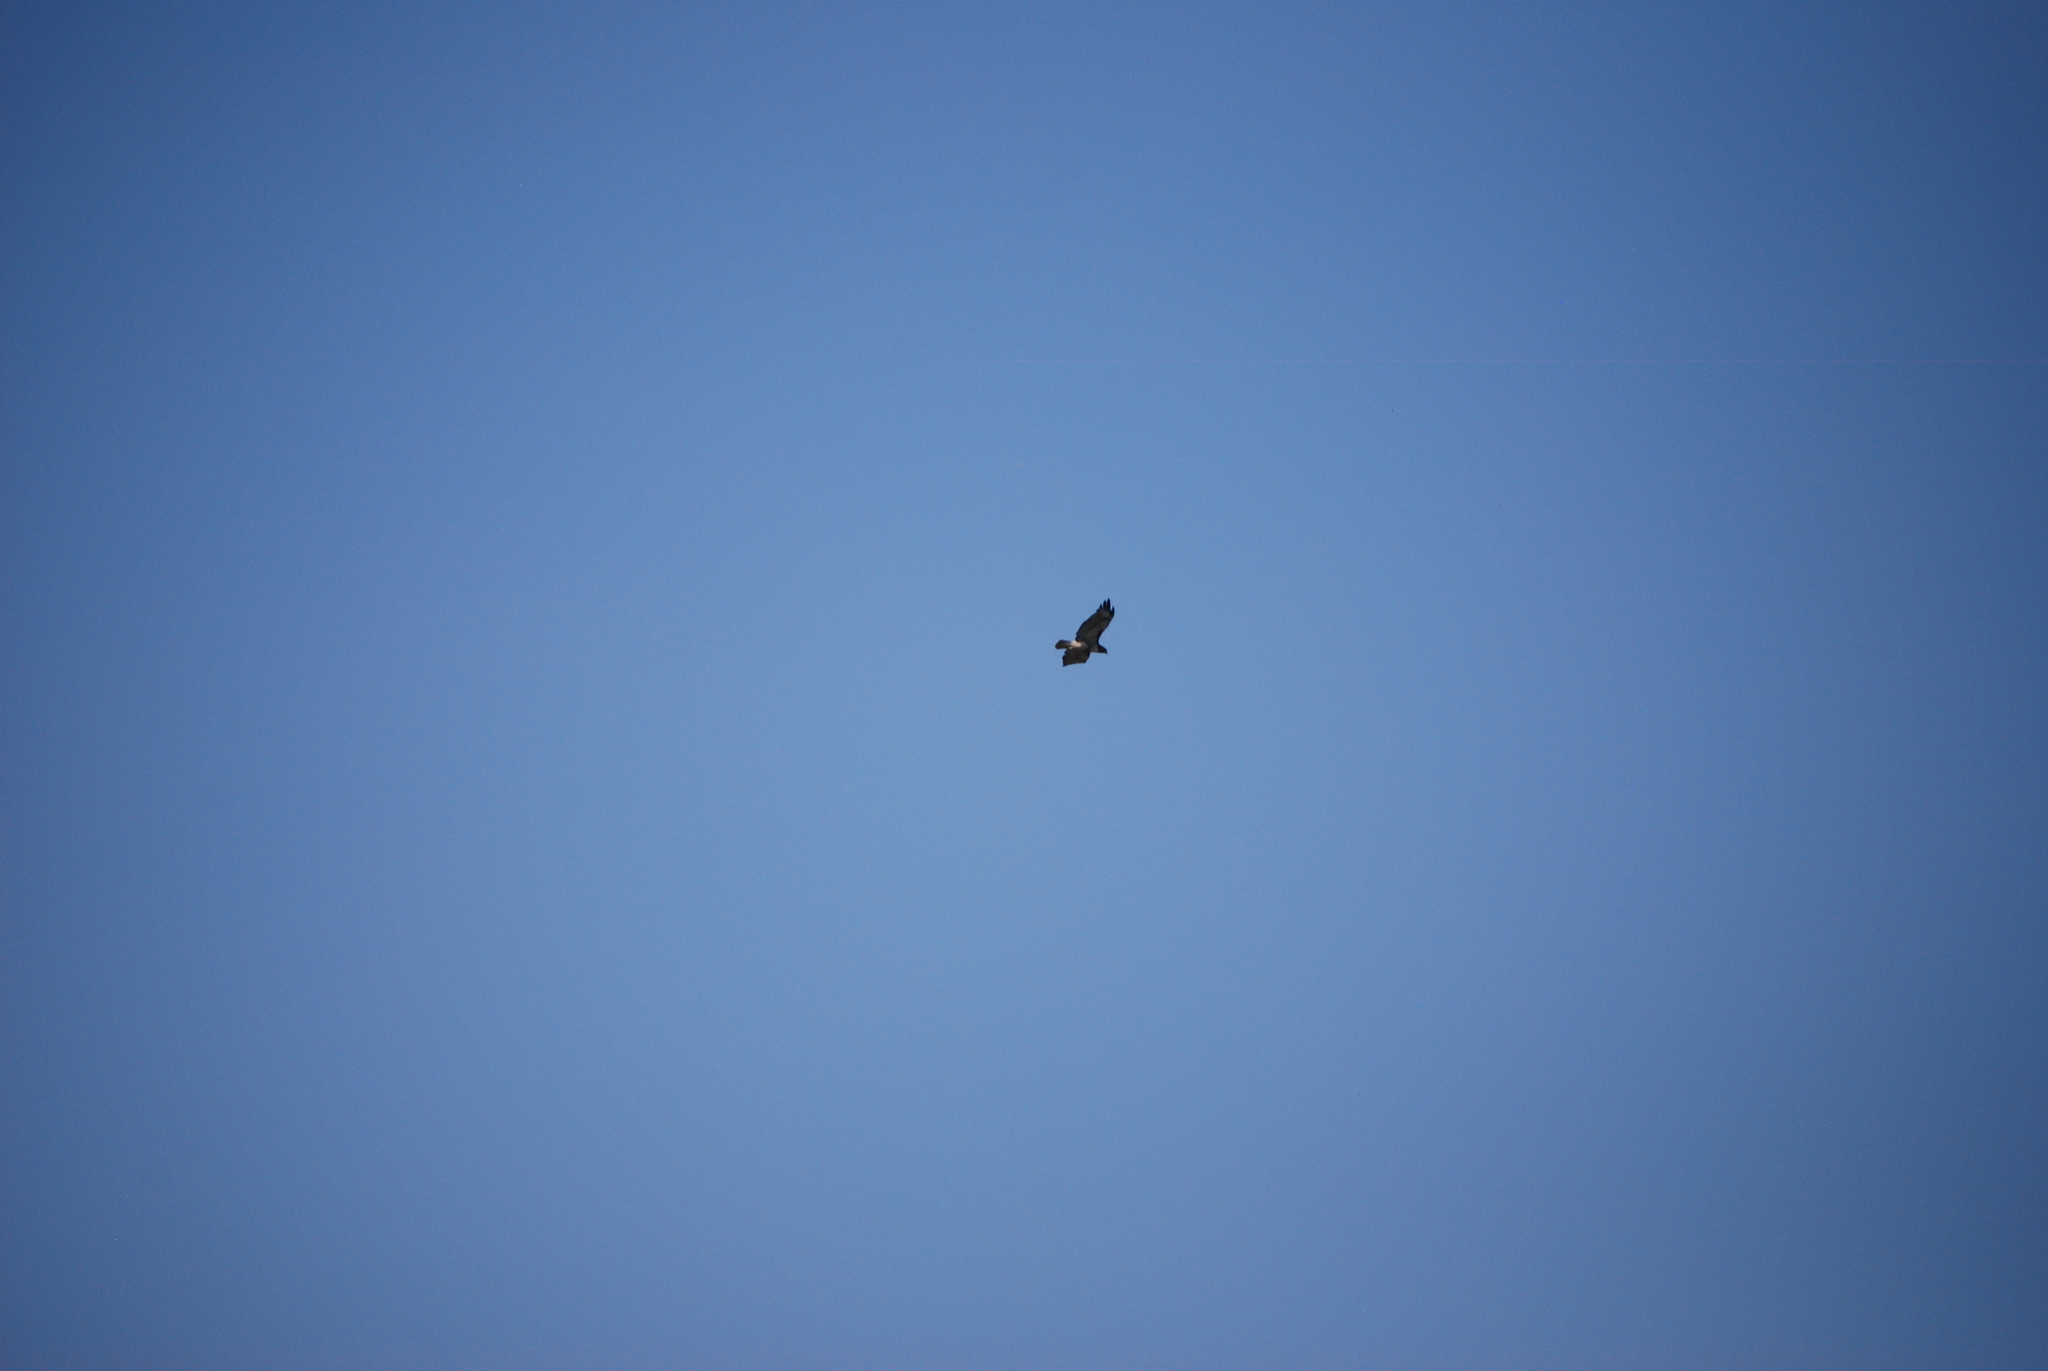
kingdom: Animalia
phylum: Chordata
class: Aves
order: Accipitriformes
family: Accipitridae
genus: Buteo
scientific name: Buteo jamaicensis
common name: Red-tailed hawk
